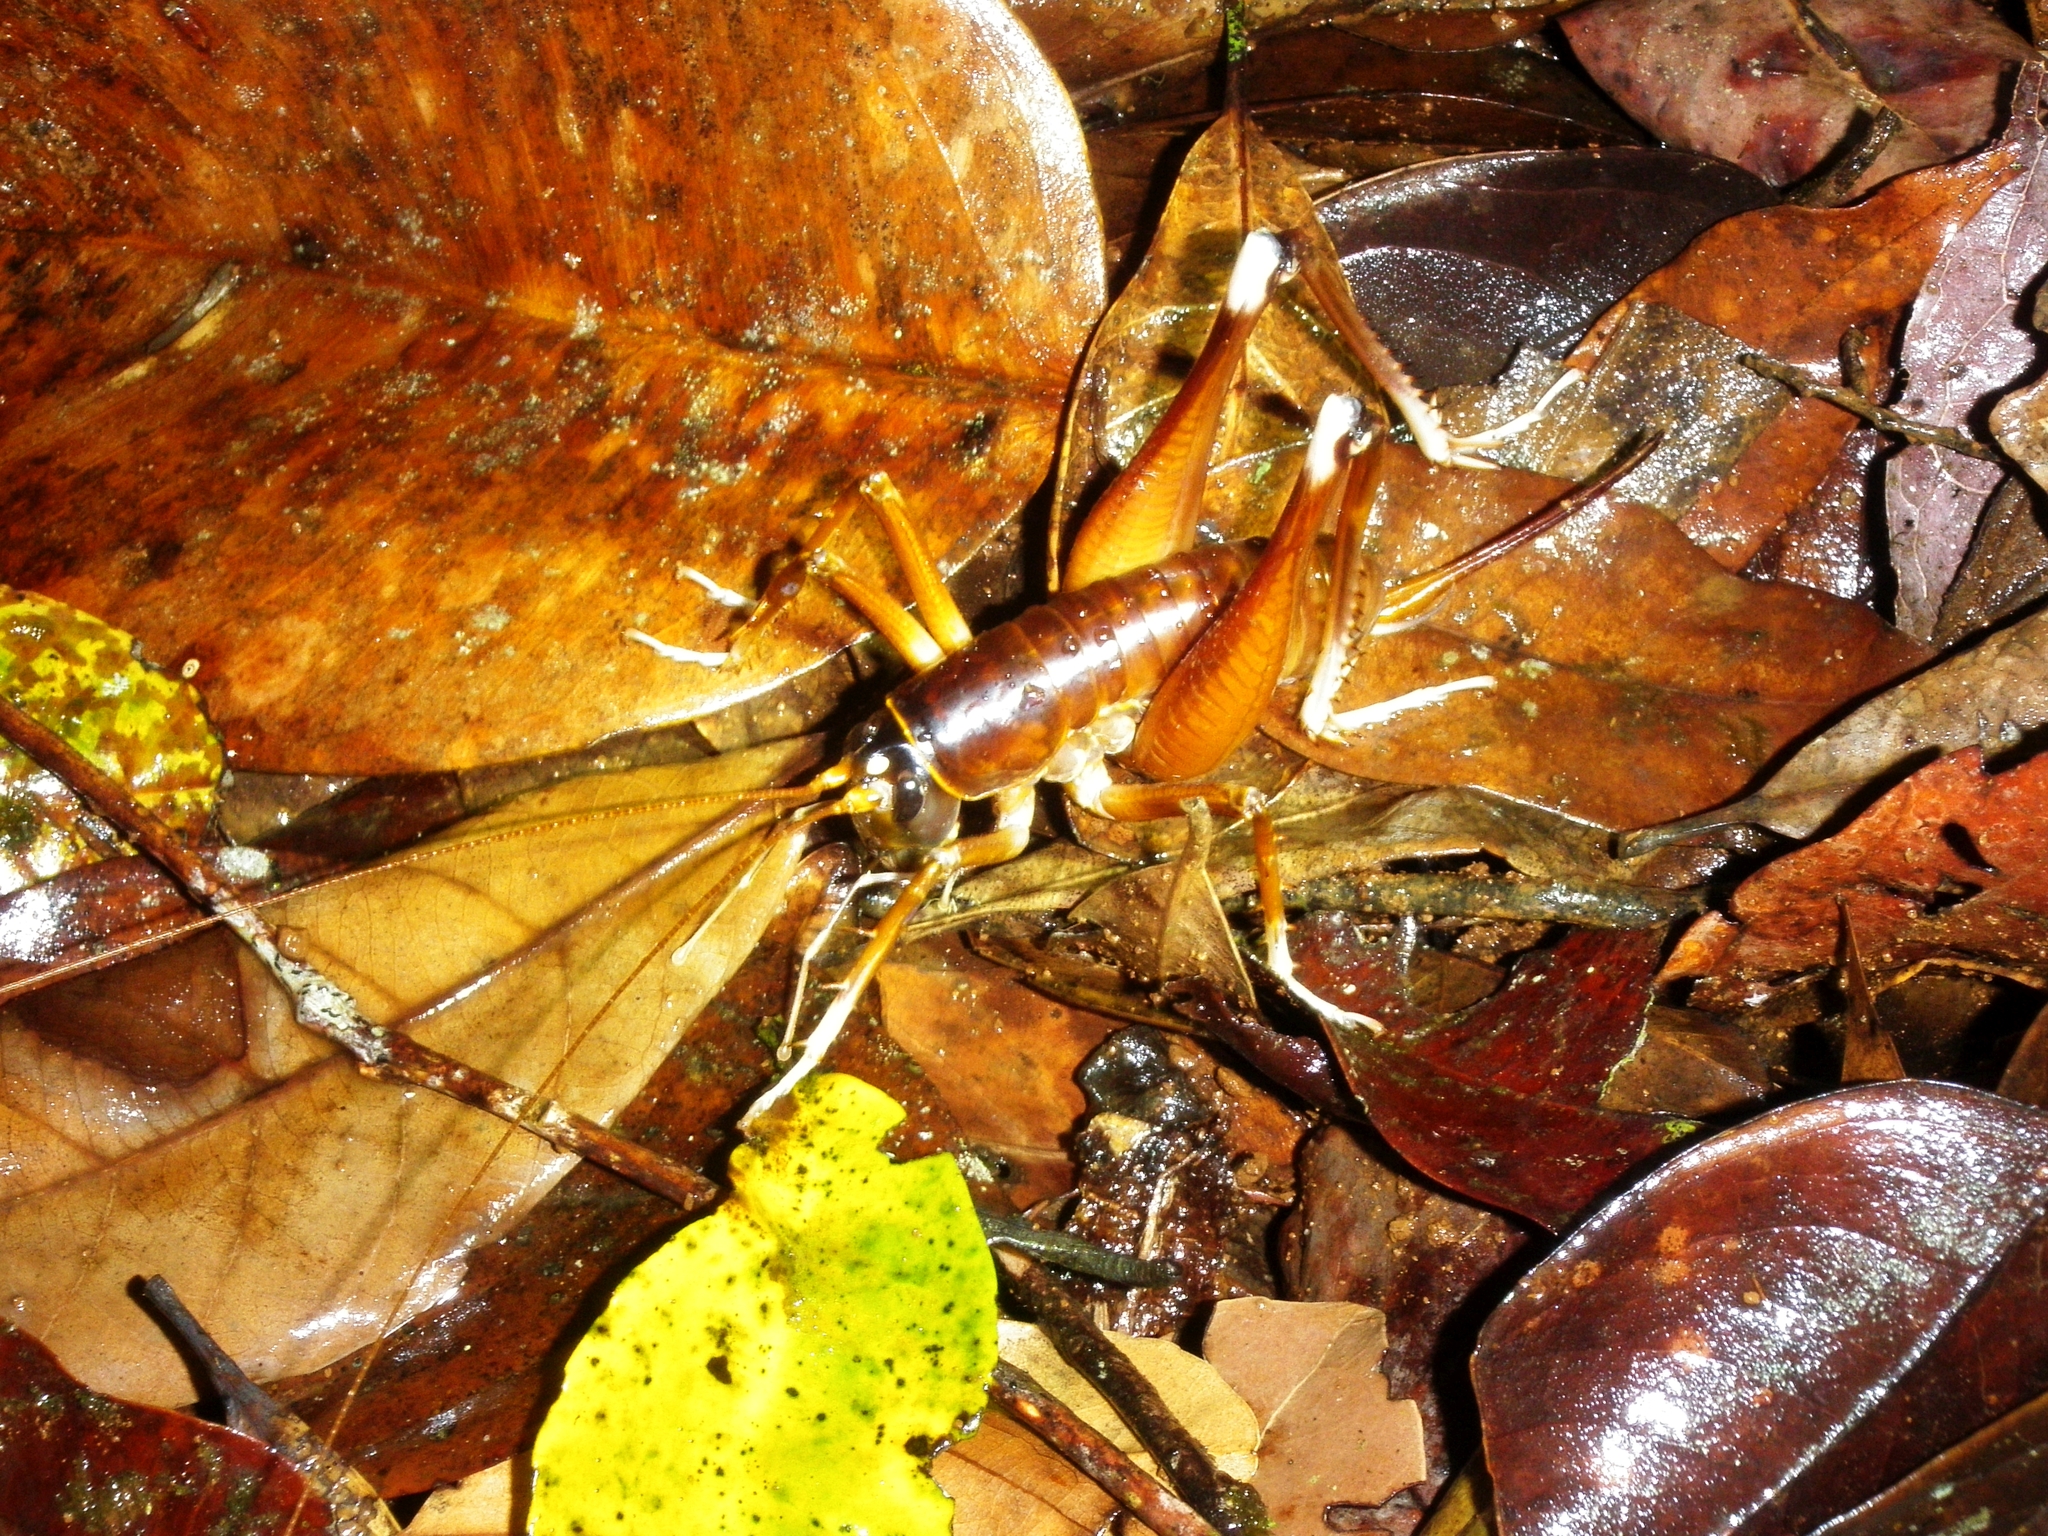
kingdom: Animalia
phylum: Arthropoda
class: Insecta
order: Orthoptera
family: Anostostomatidae
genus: Penalva
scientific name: Penalva flavocalceata
